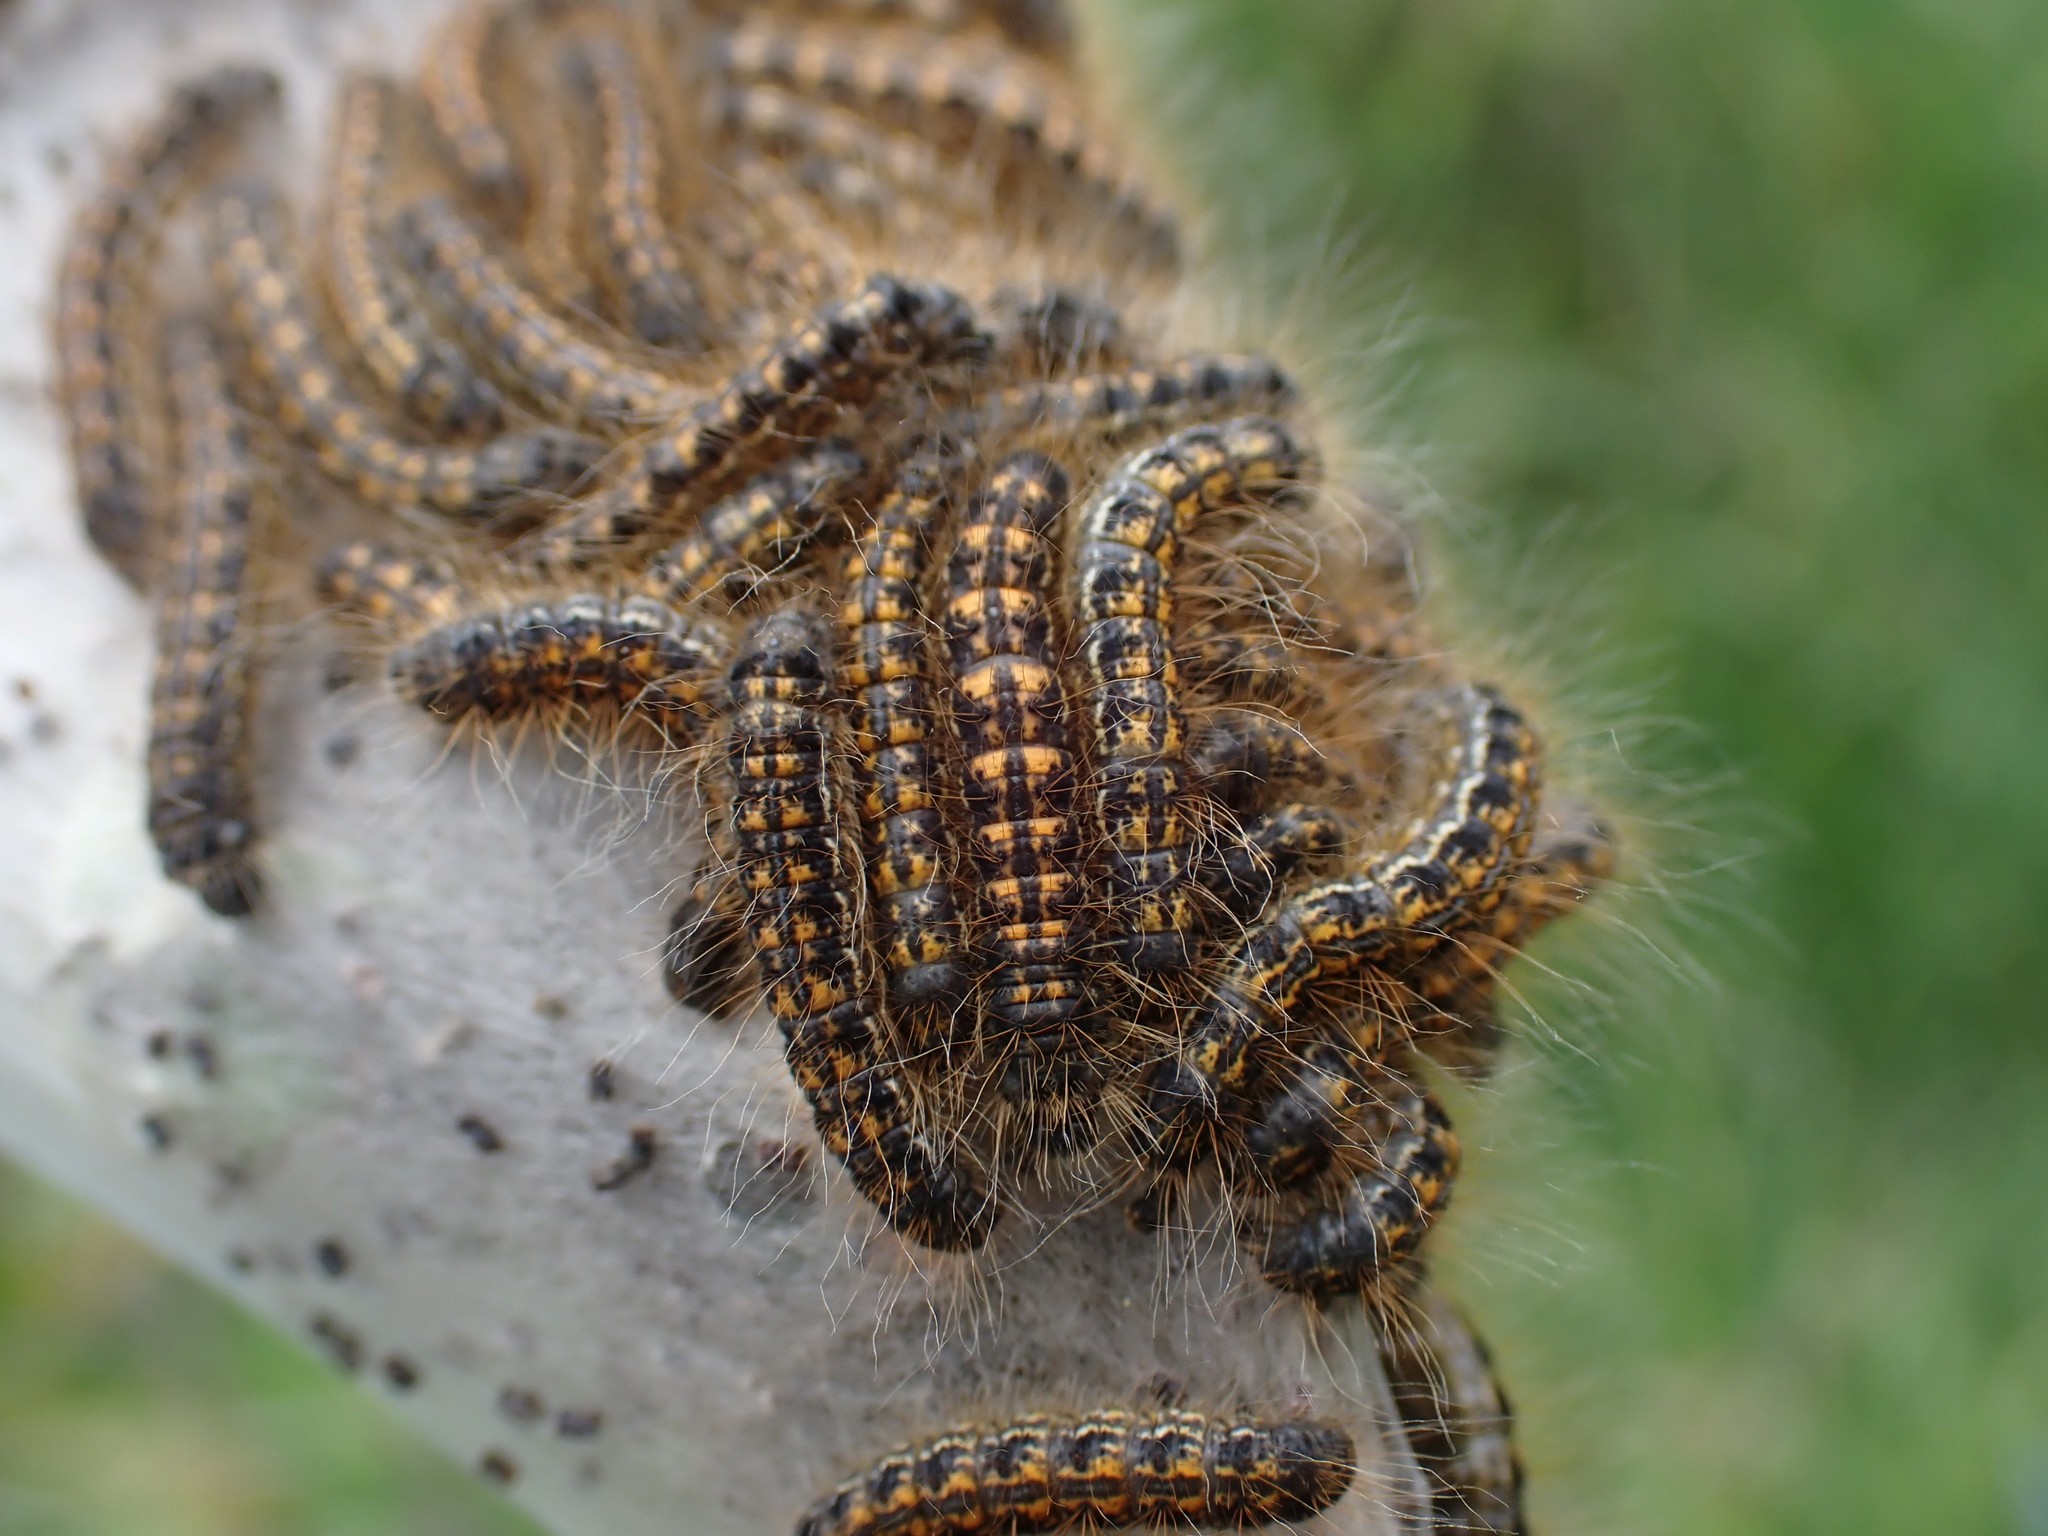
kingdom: Animalia
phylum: Arthropoda
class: Insecta
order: Lepidoptera
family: Lasiocampidae
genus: Malacosoma
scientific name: Malacosoma californica
